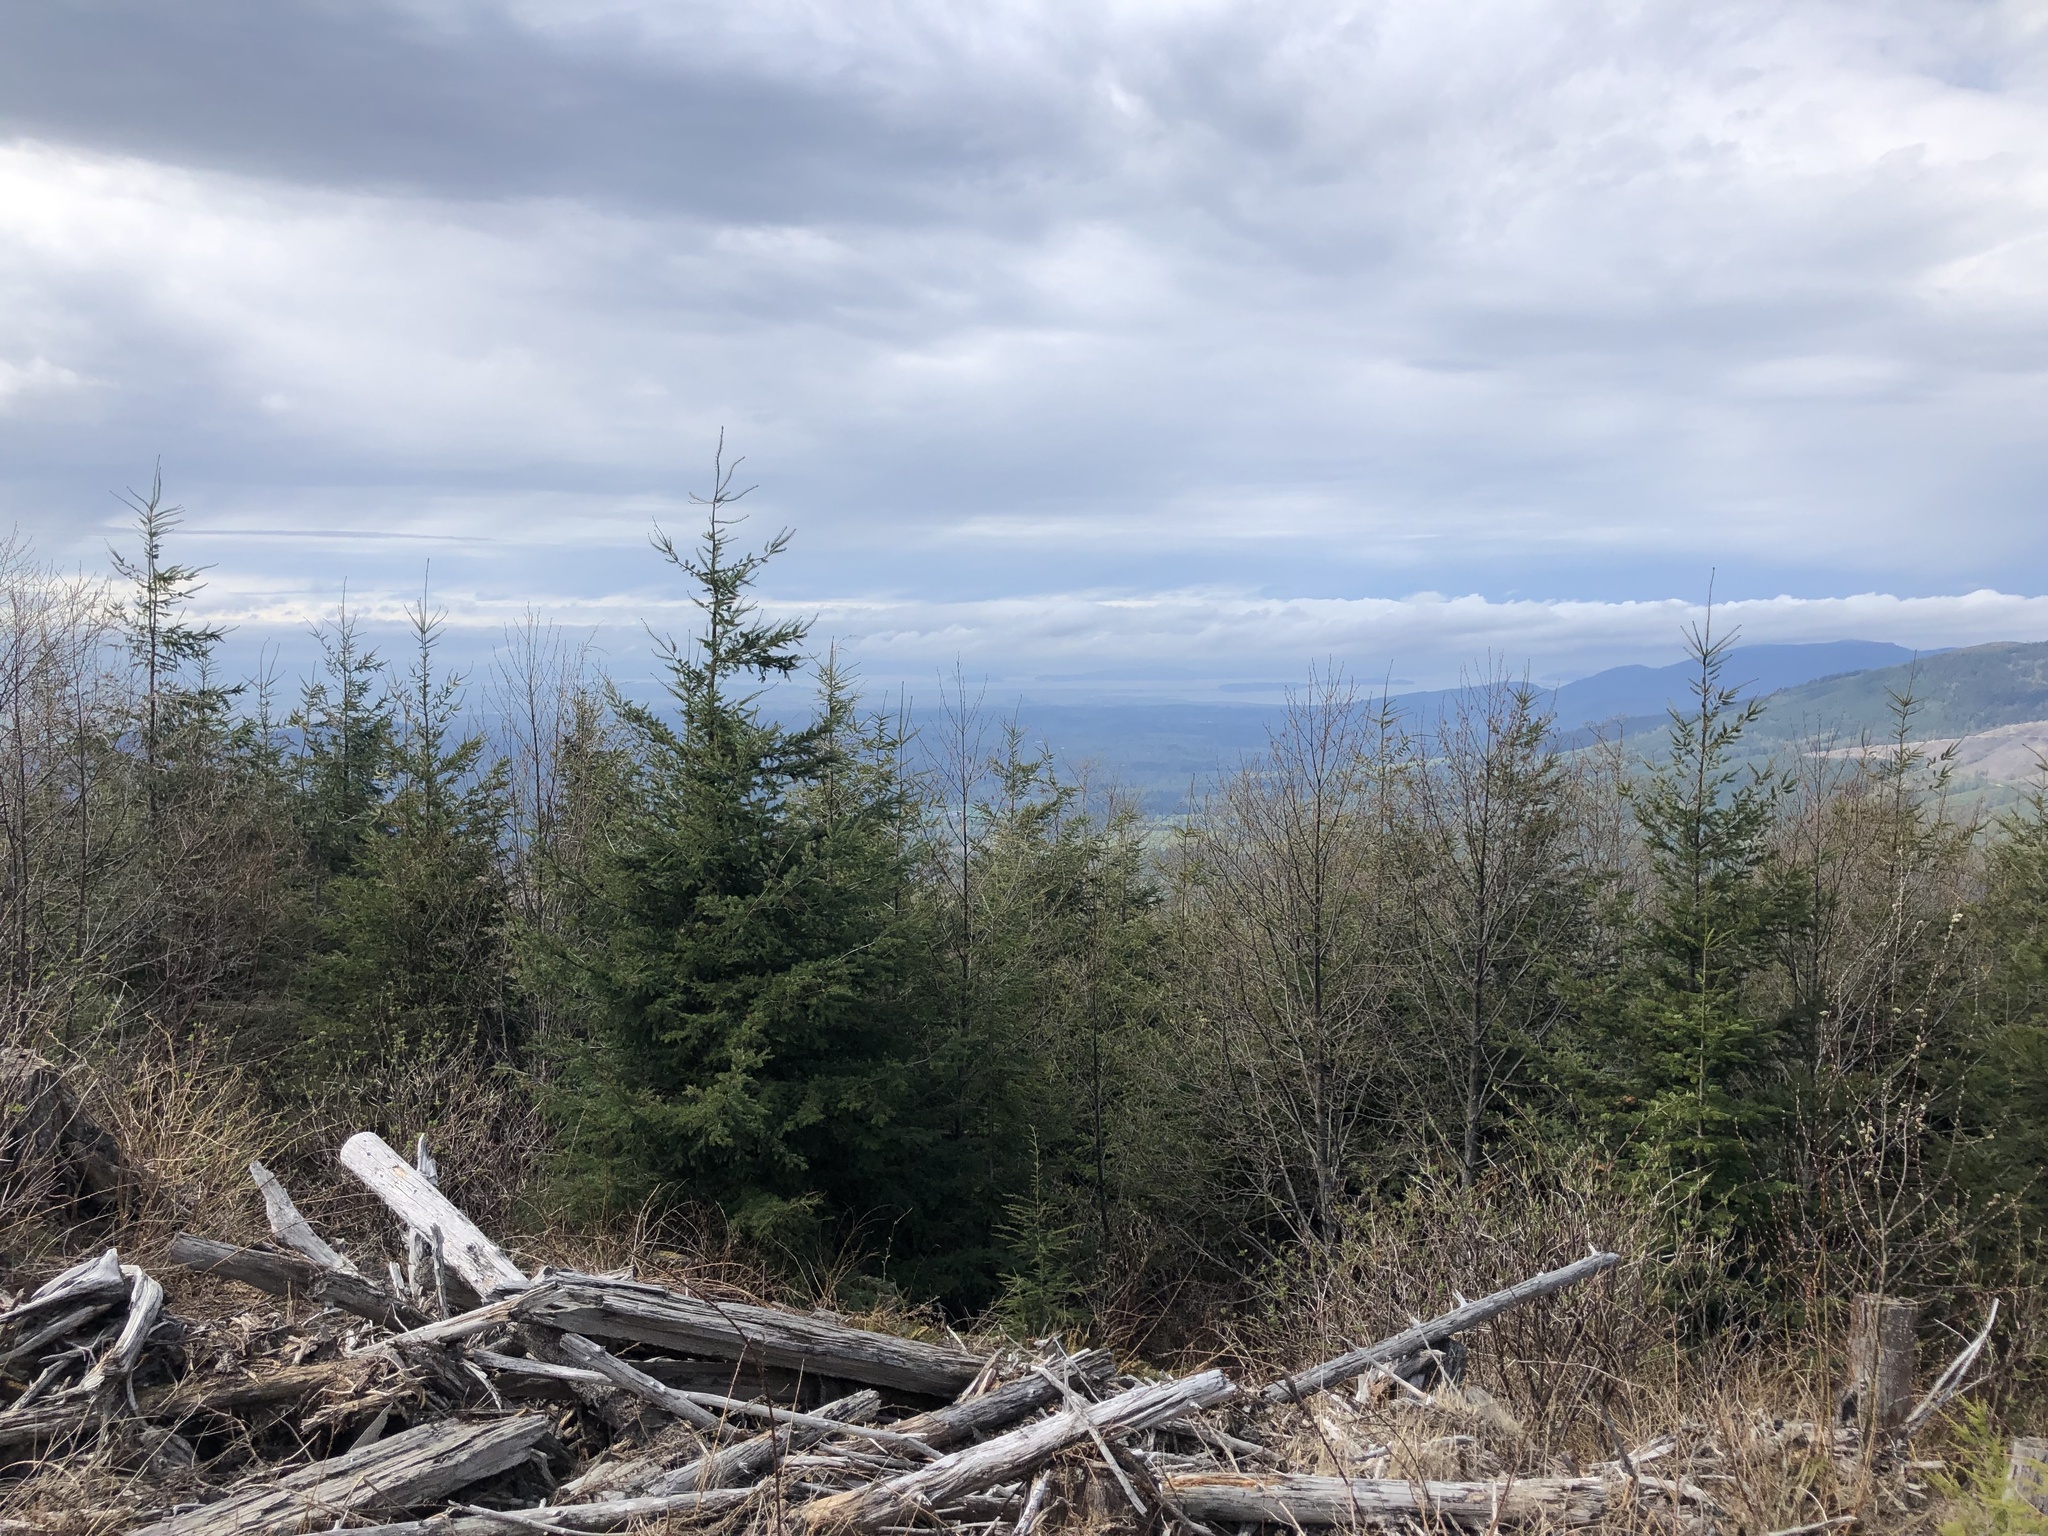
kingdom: Plantae
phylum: Tracheophyta
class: Pinopsida
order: Pinales
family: Pinaceae
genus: Pseudotsuga
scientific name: Pseudotsuga menziesii
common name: Douglas fir
